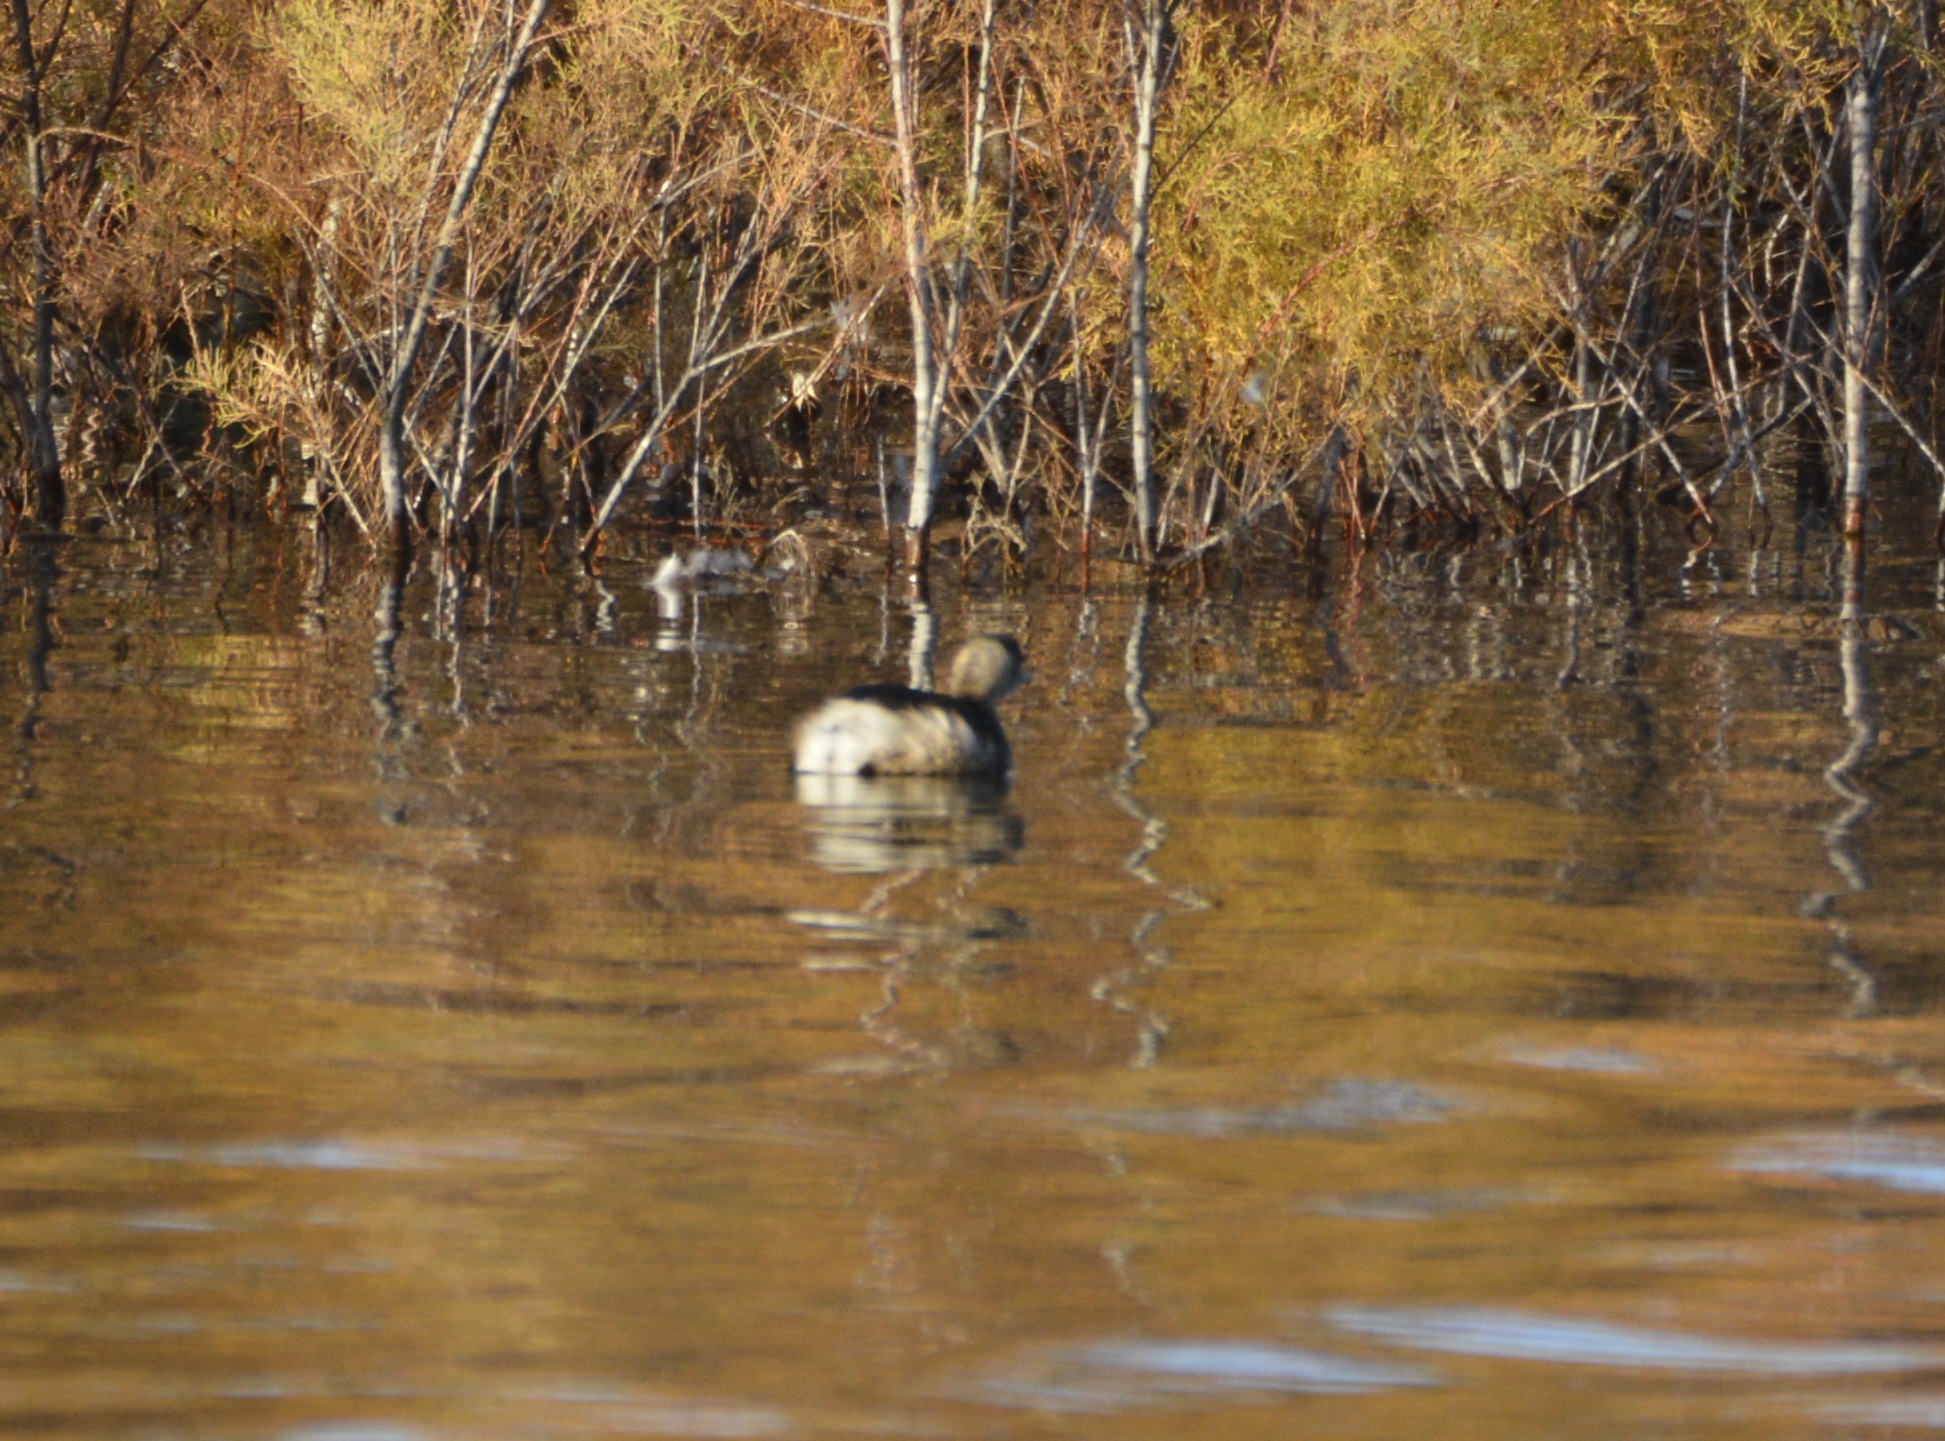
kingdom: Animalia
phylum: Chordata
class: Aves
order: Podicipediformes
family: Podicipedidae
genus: Tachybaptus
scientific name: Tachybaptus ruficollis
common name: Little grebe
